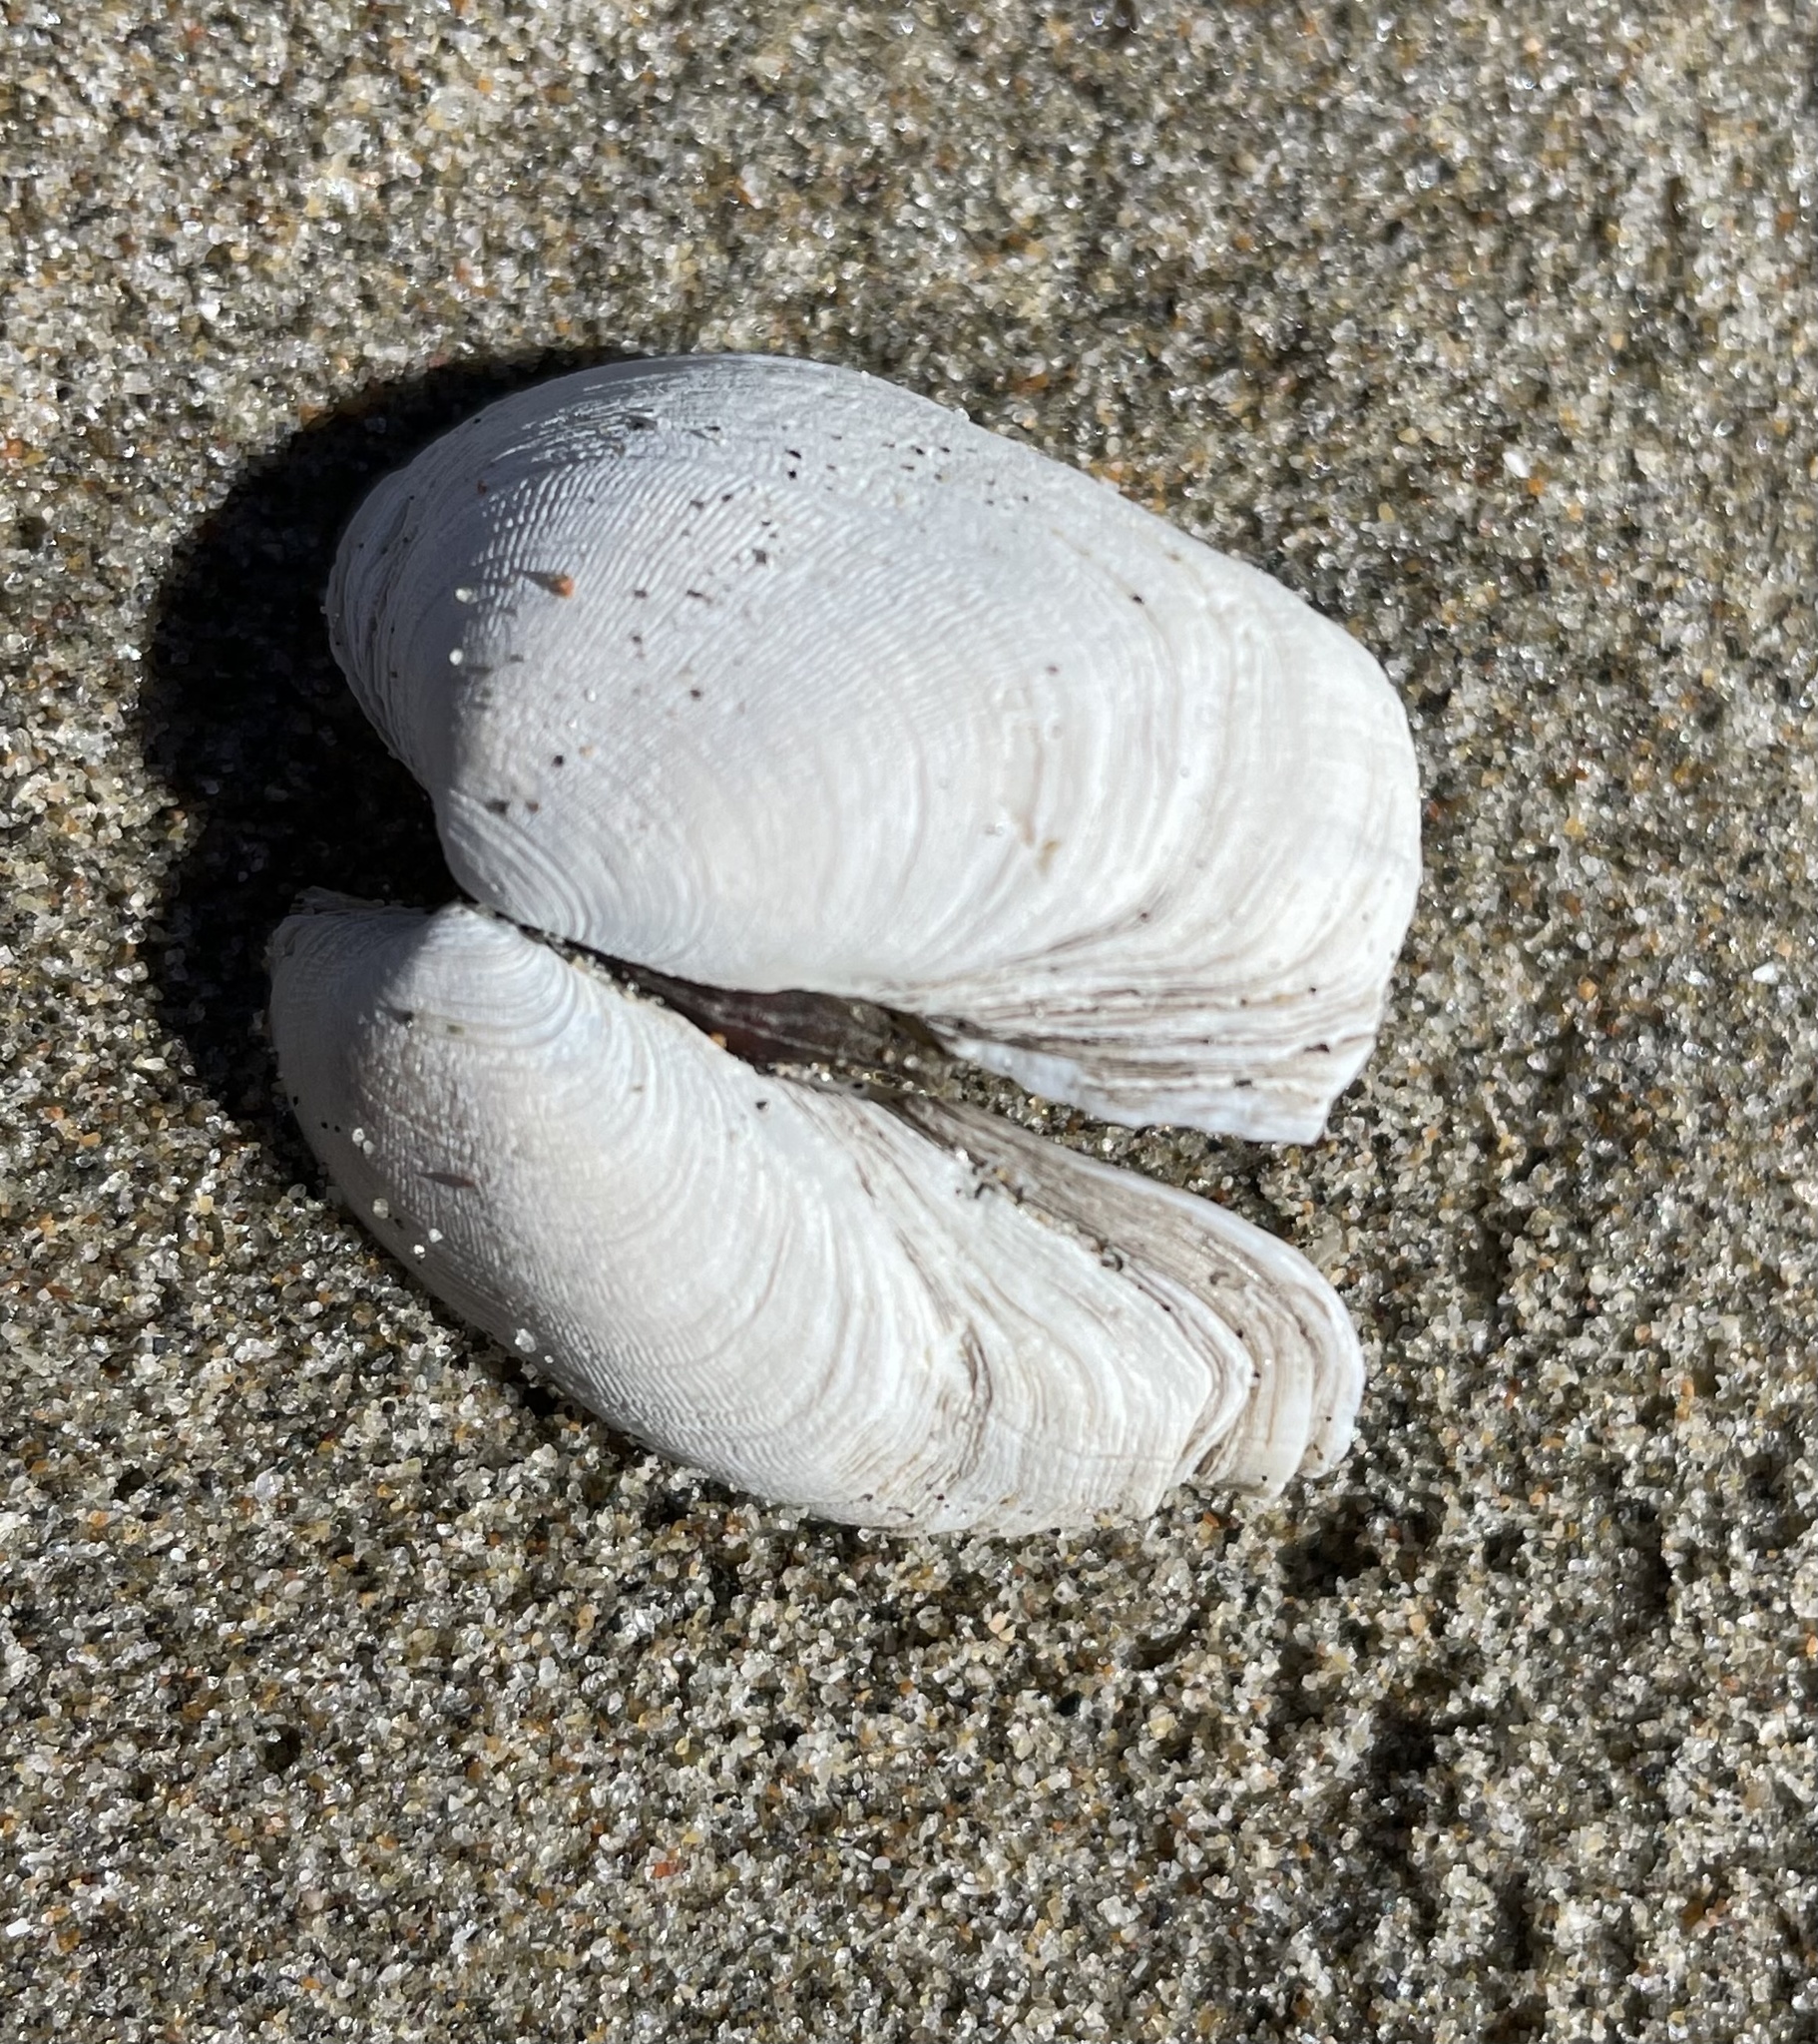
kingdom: Animalia
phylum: Mollusca
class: Bivalvia
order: Venerida
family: Veneridae
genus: Petricola
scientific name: Petricola carditoides
